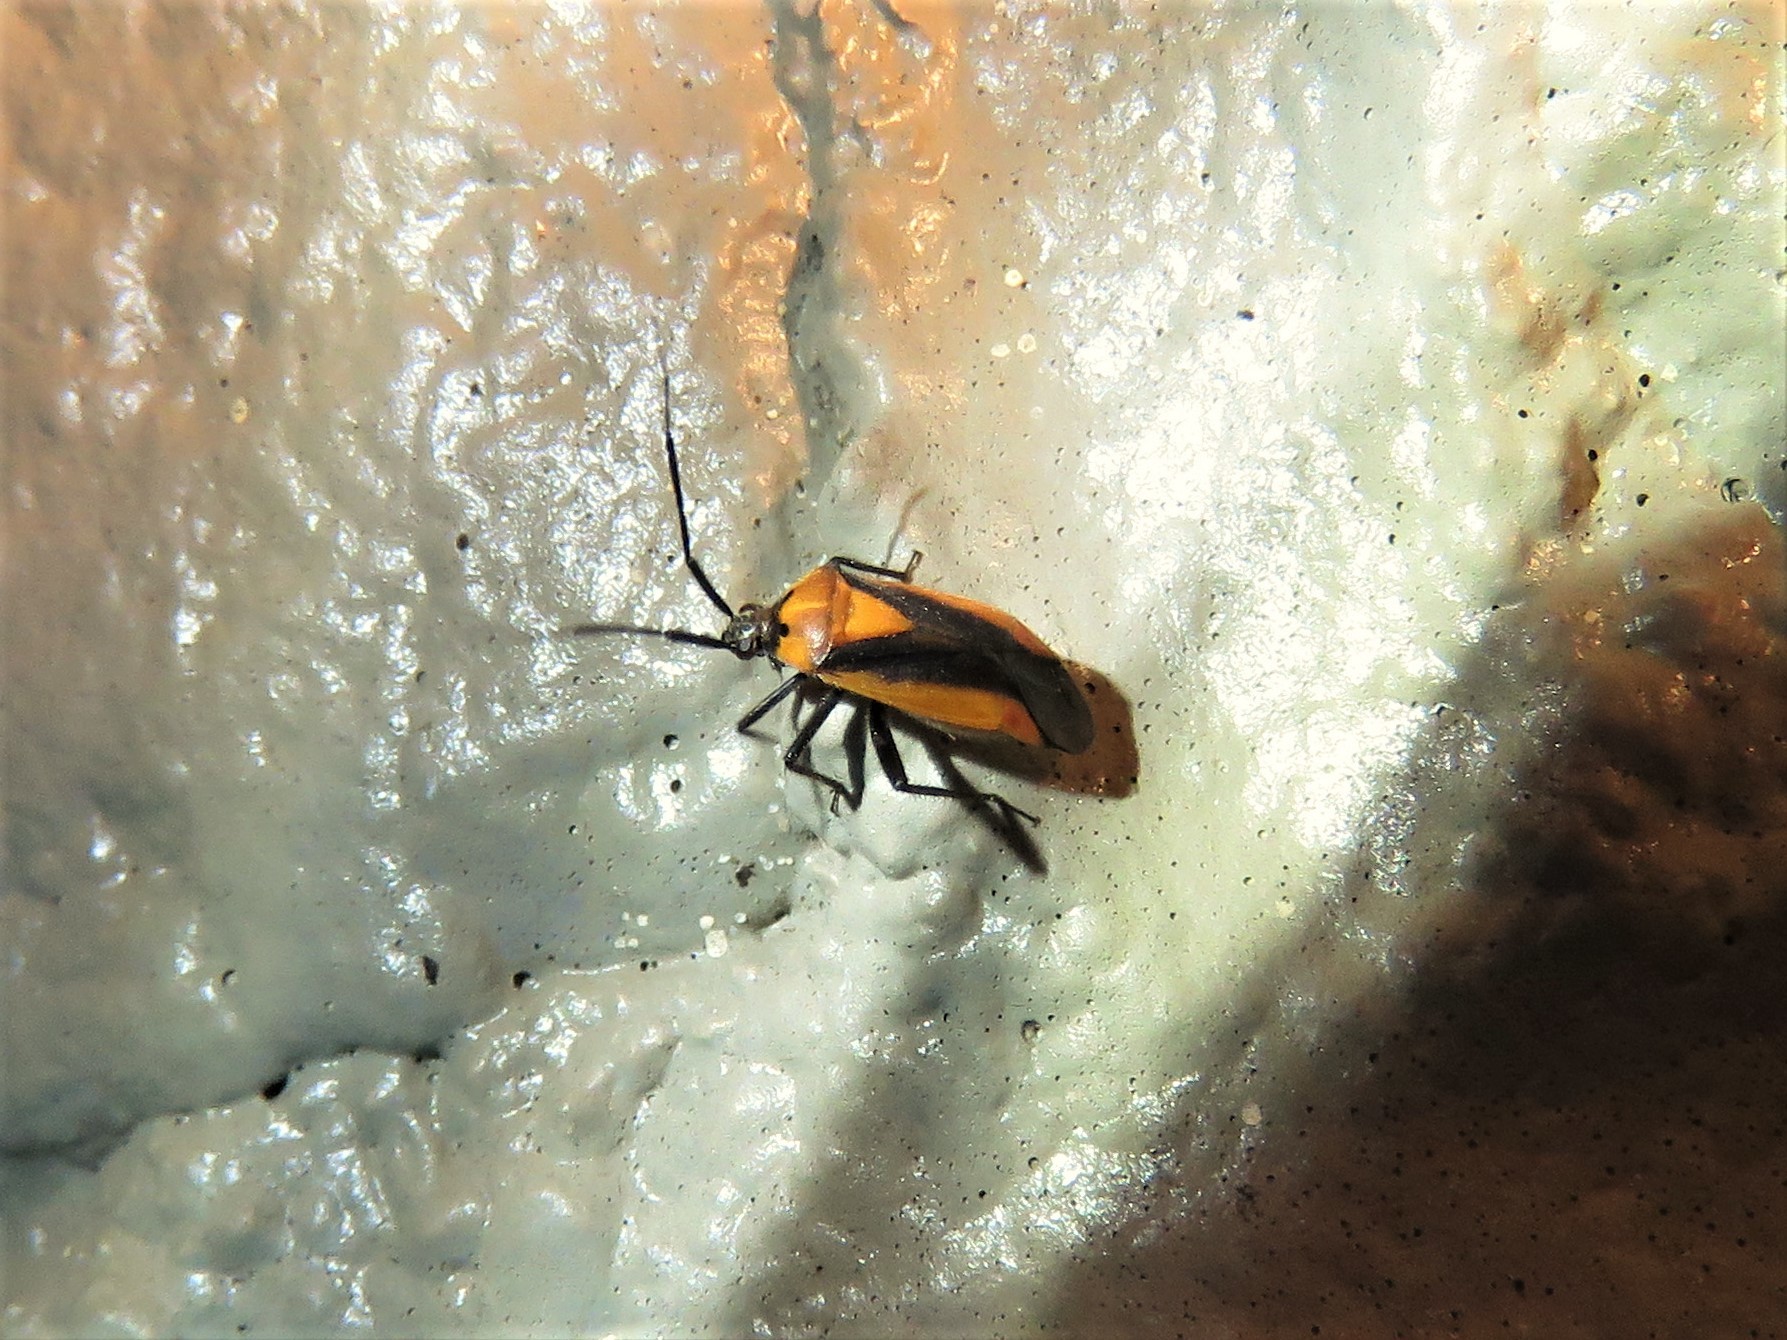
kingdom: Animalia
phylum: Arthropoda
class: Insecta
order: Hemiptera
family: Miridae
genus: Taedia
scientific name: Taedia scrupea
